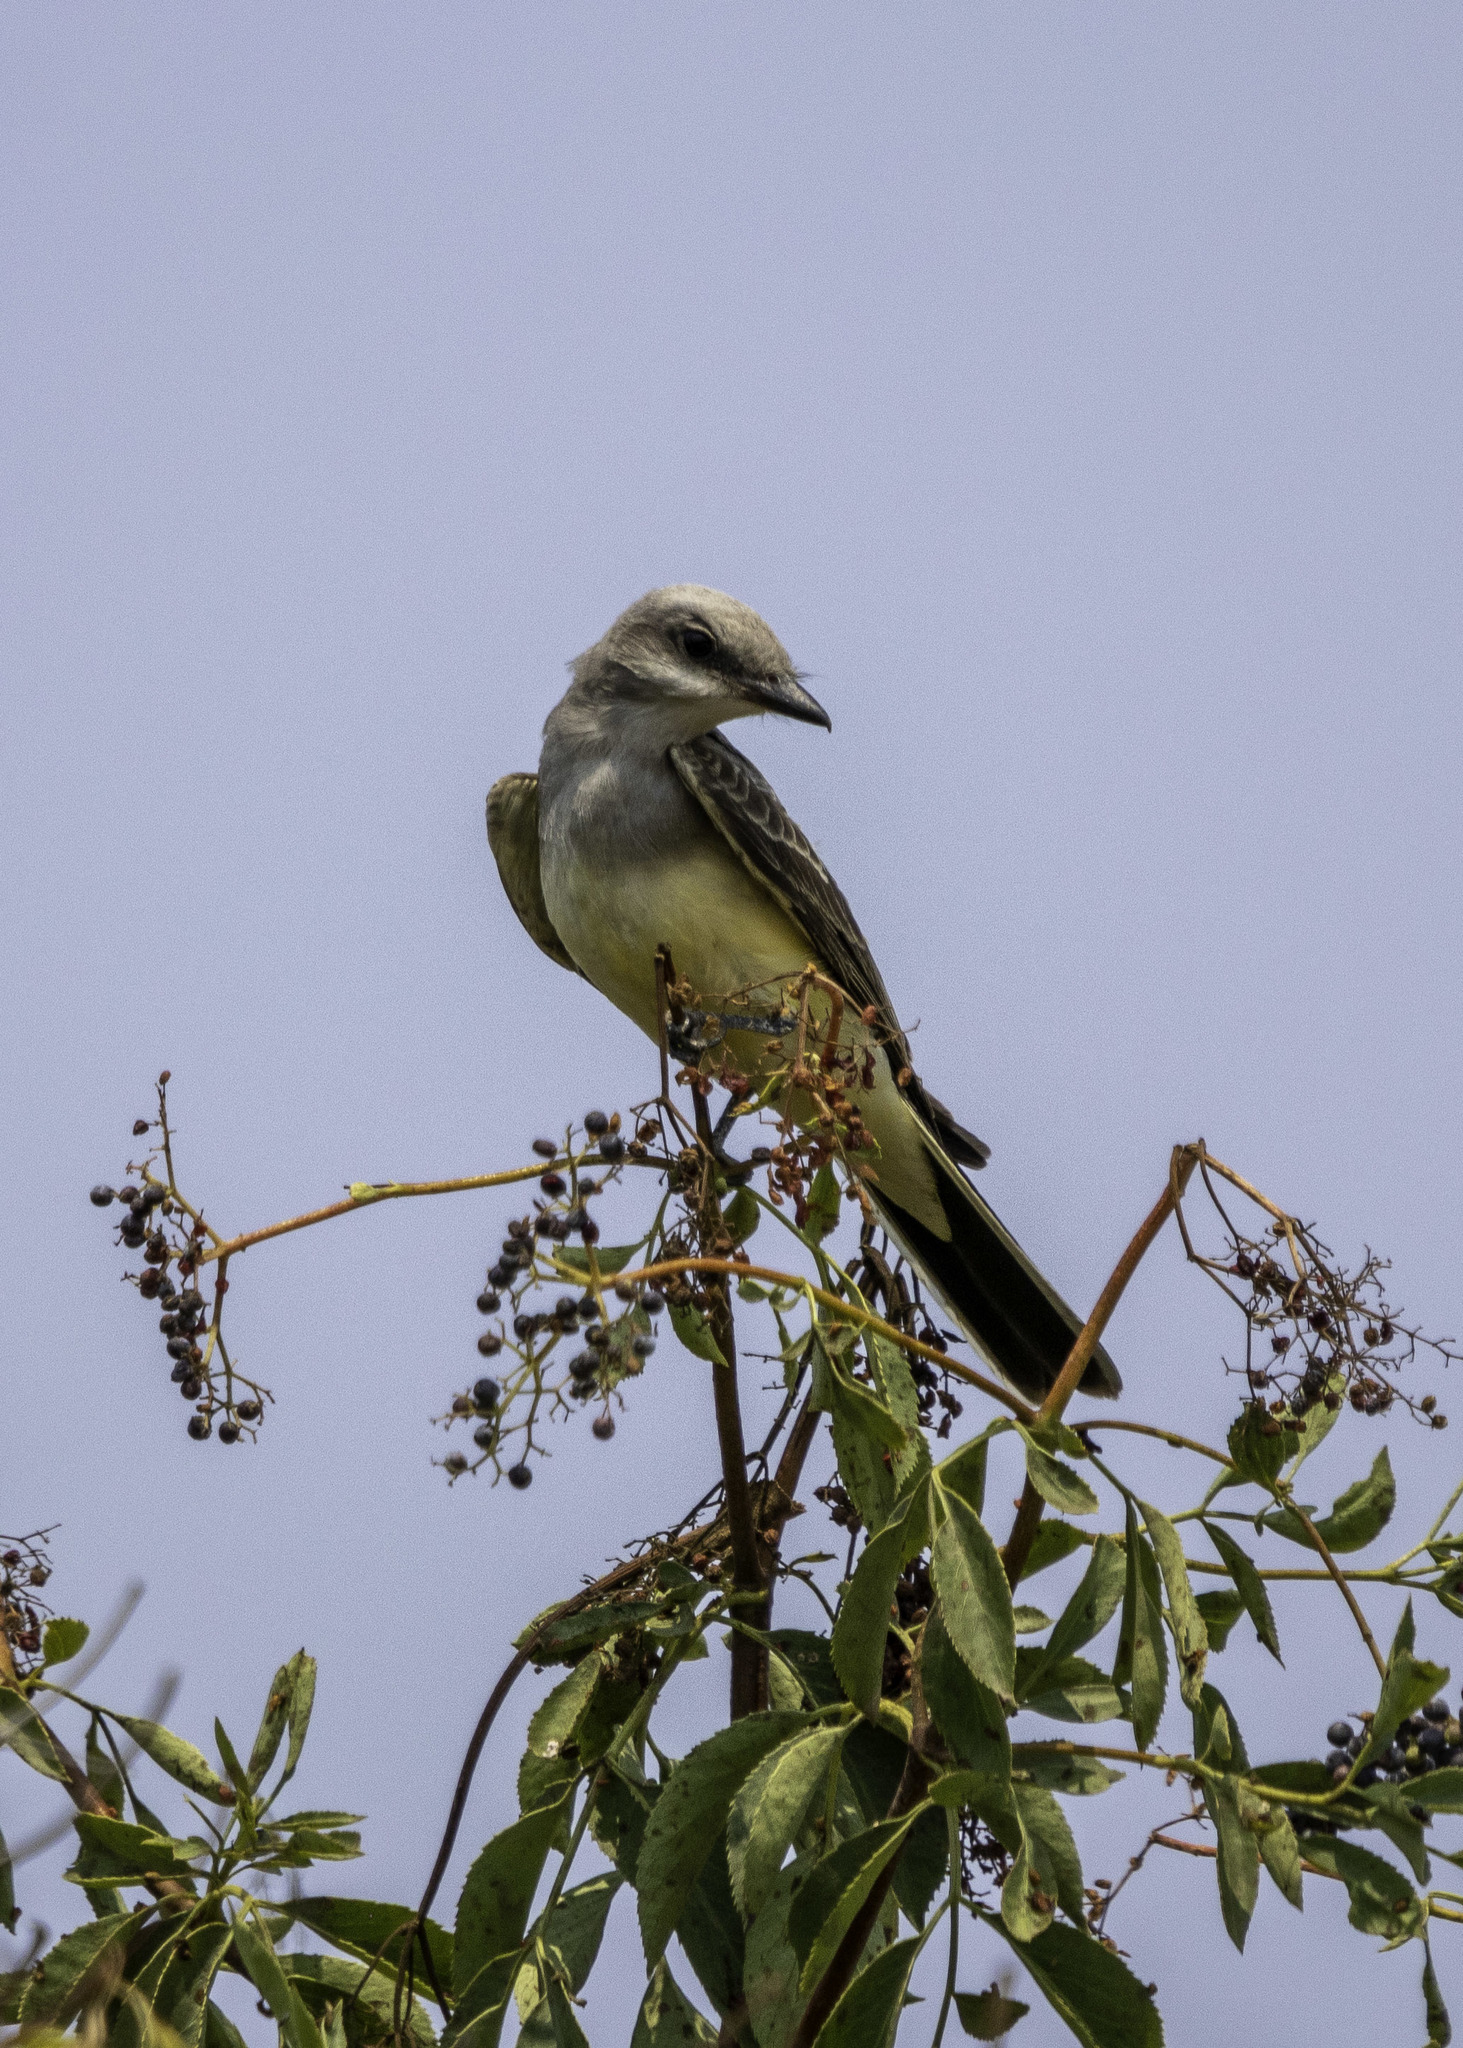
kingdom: Animalia
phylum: Chordata
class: Aves
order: Passeriformes
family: Tyrannidae
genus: Tyrannus
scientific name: Tyrannus verticalis
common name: Western kingbird
